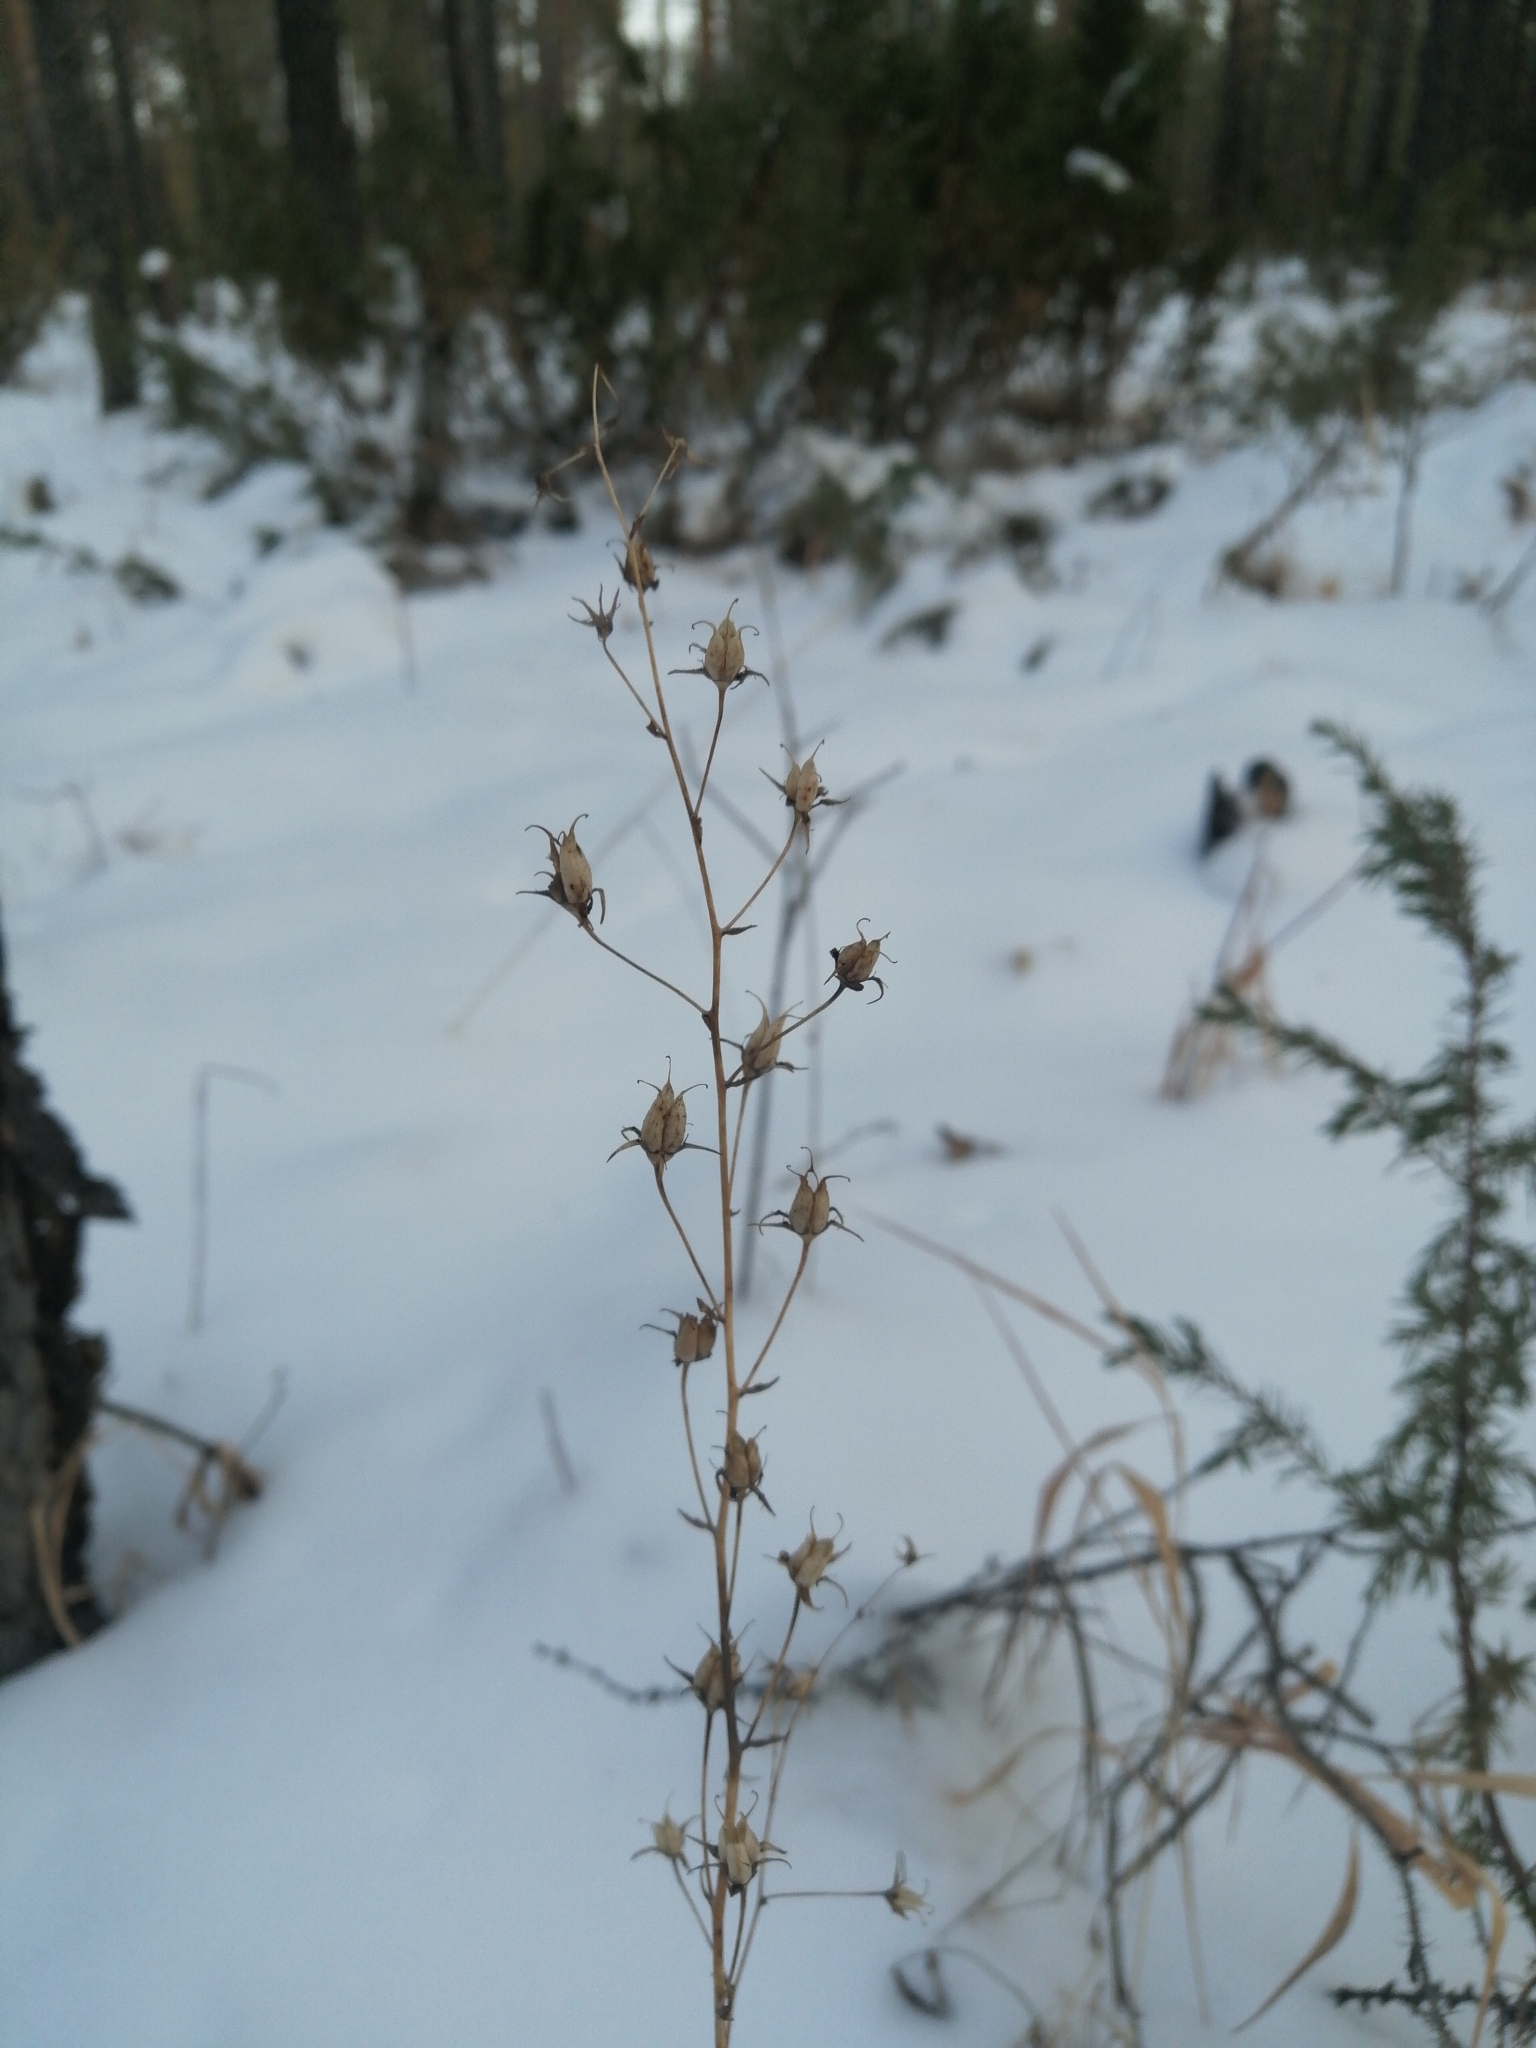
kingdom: Plantae
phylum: Tracheophyta
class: Liliopsida
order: Liliales
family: Melanthiaceae
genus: Anticlea
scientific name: Anticlea sibirica
